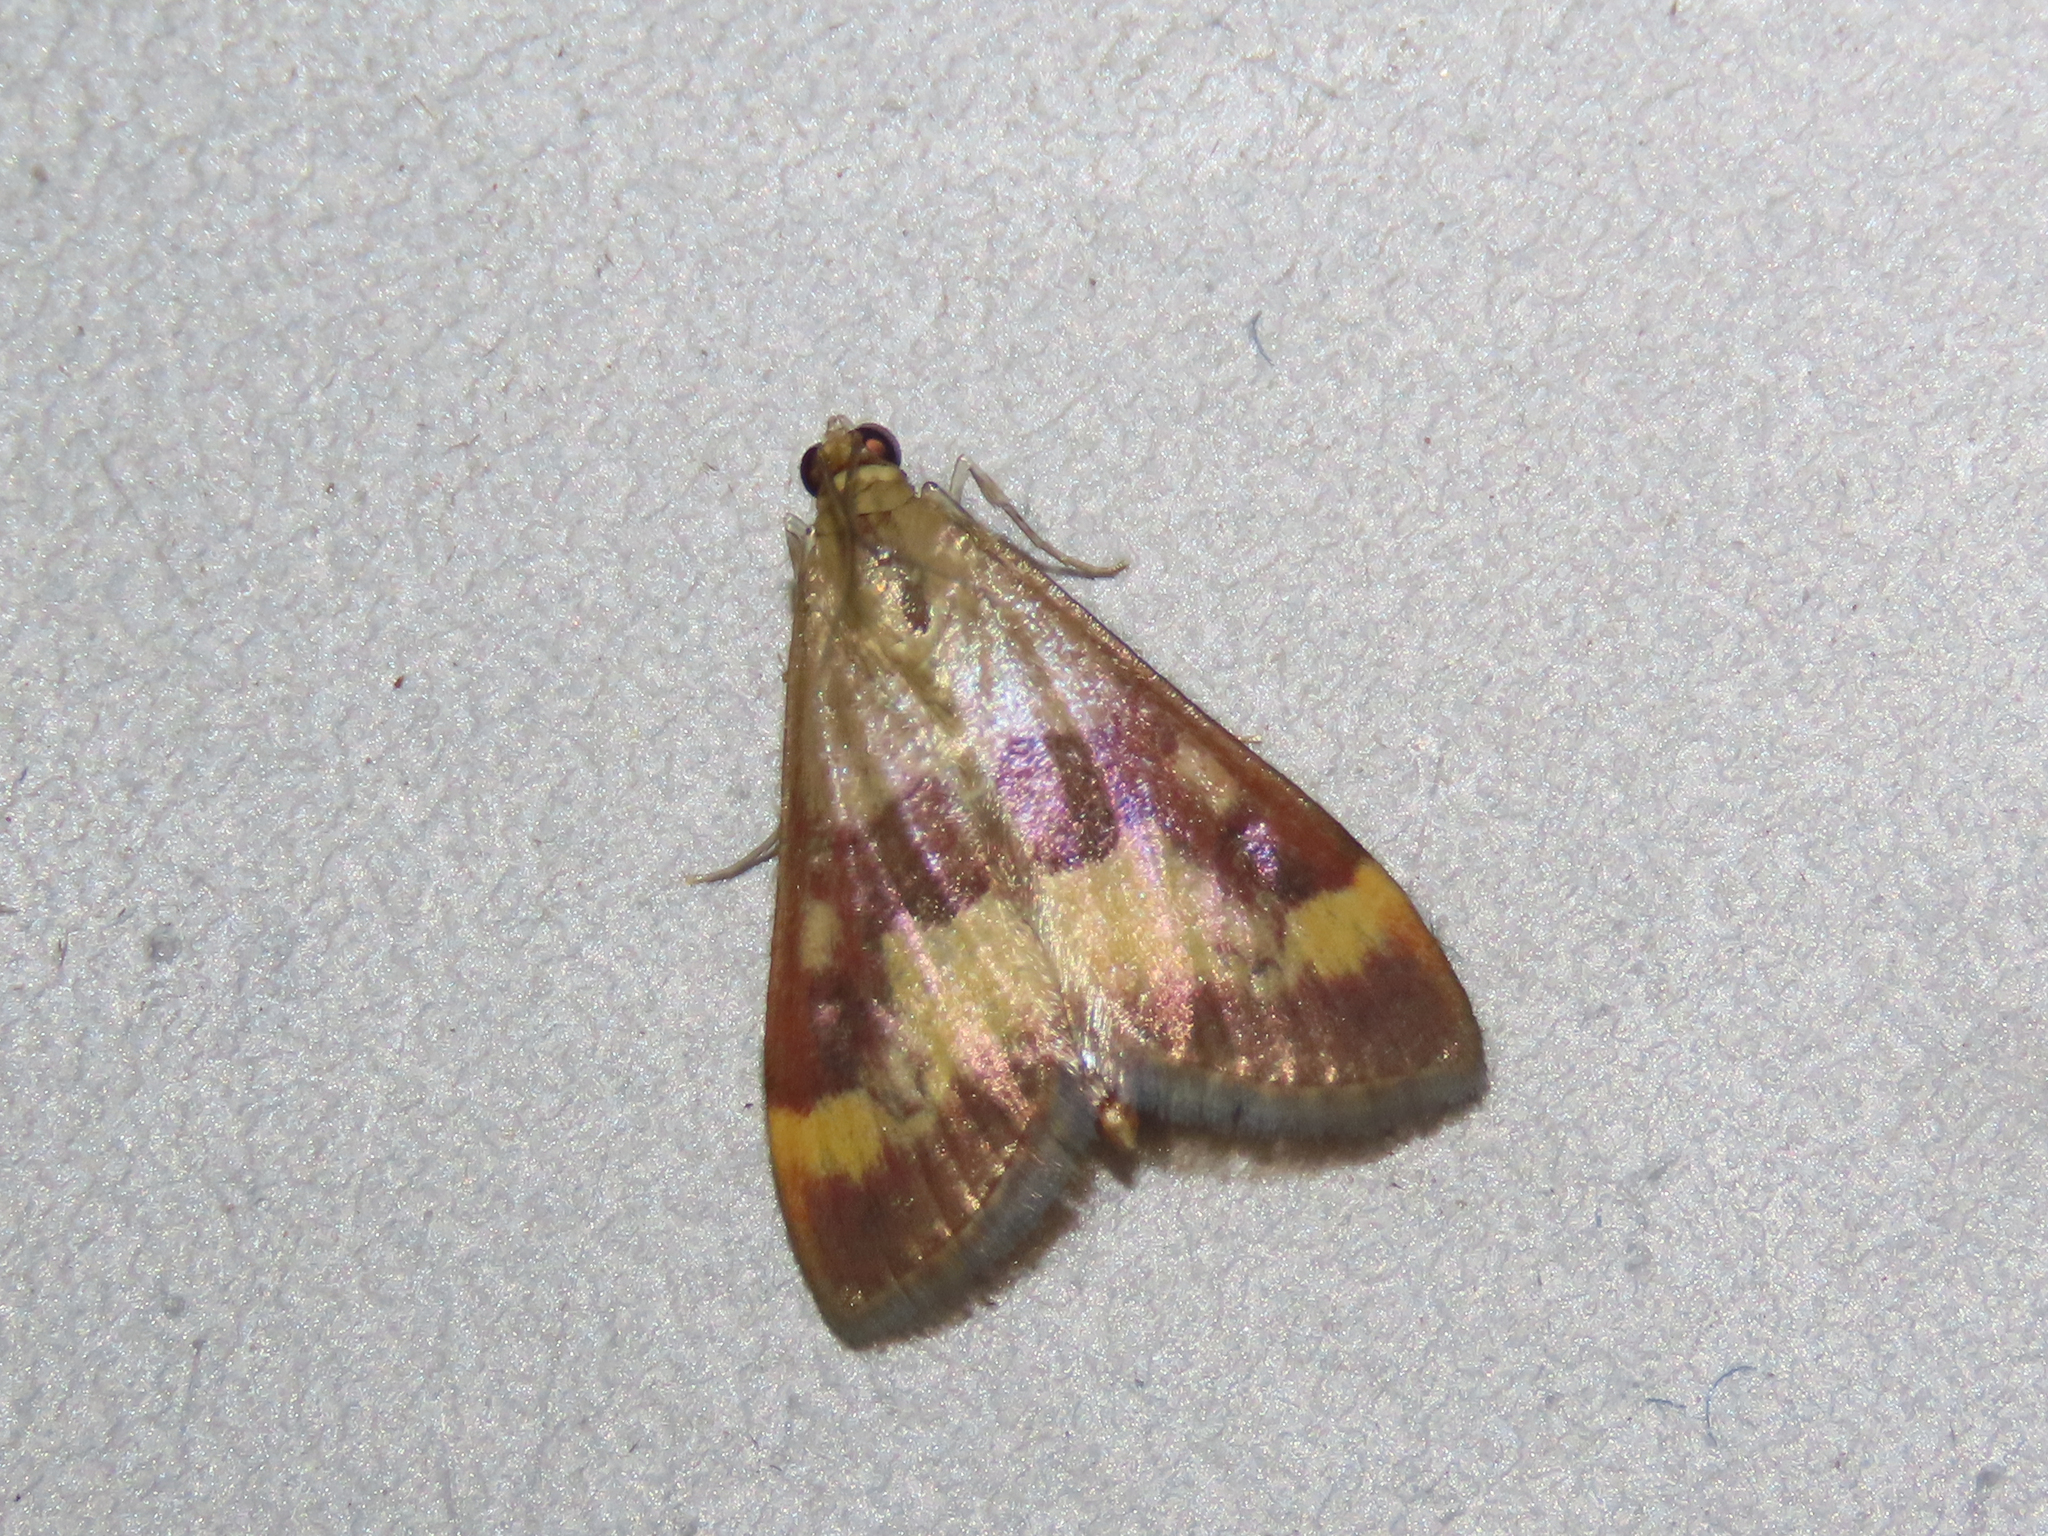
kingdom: Animalia
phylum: Arthropoda
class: Insecta
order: Lepidoptera
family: Crambidae
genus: Pyrausta
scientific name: Pyrausta flavofascialis
